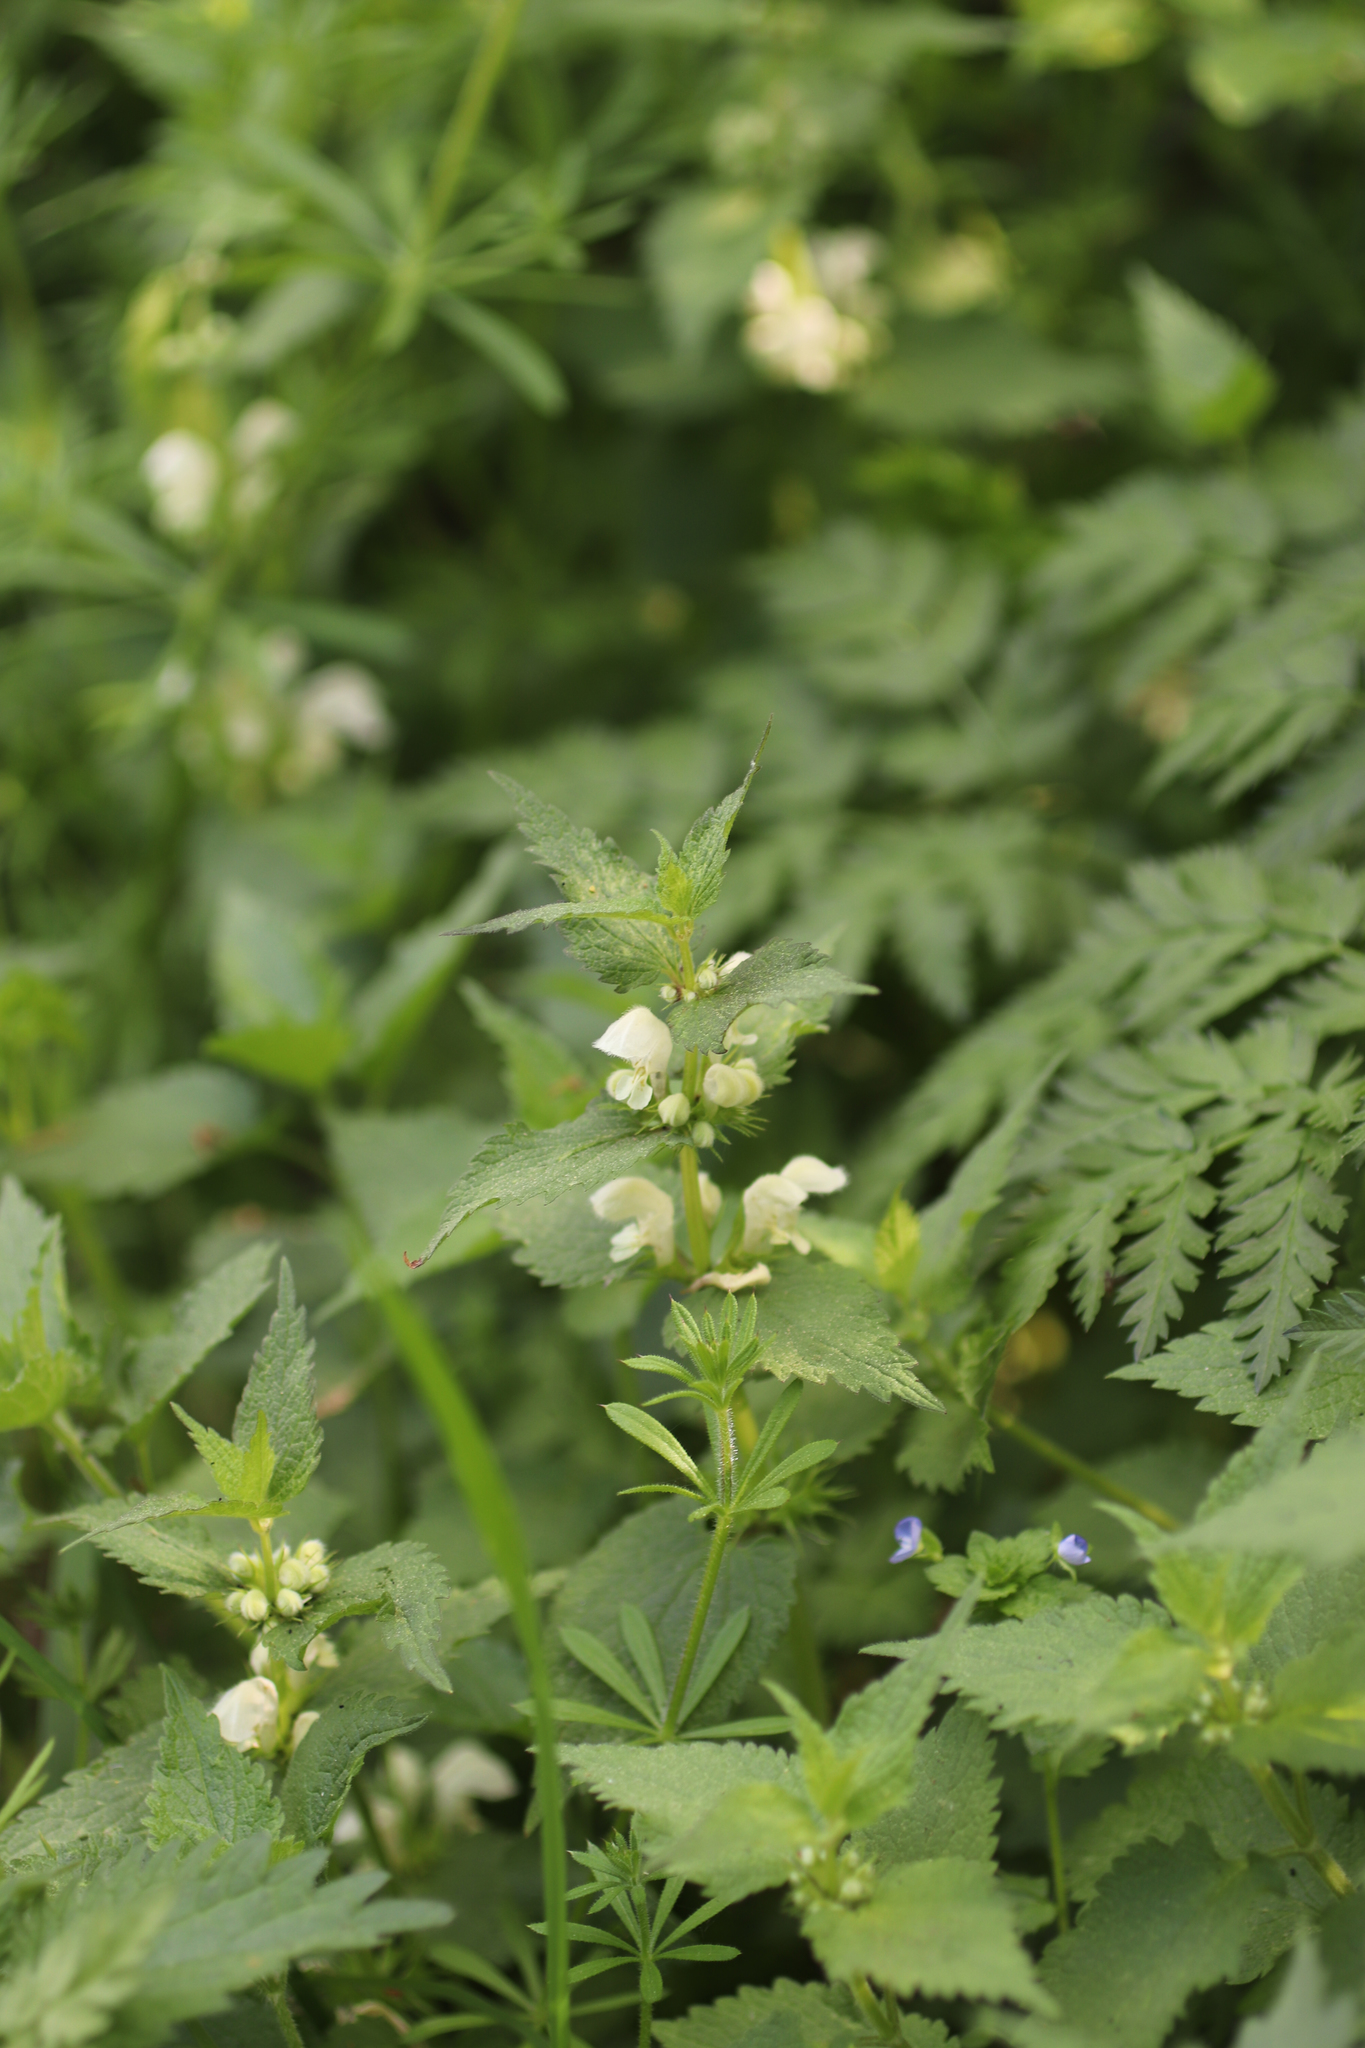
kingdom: Plantae
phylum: Tracheophyta
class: Magnoliopsida
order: Lamiales
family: Lamiaceae
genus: Lamium
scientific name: Lamium album
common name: White dead-nettle
